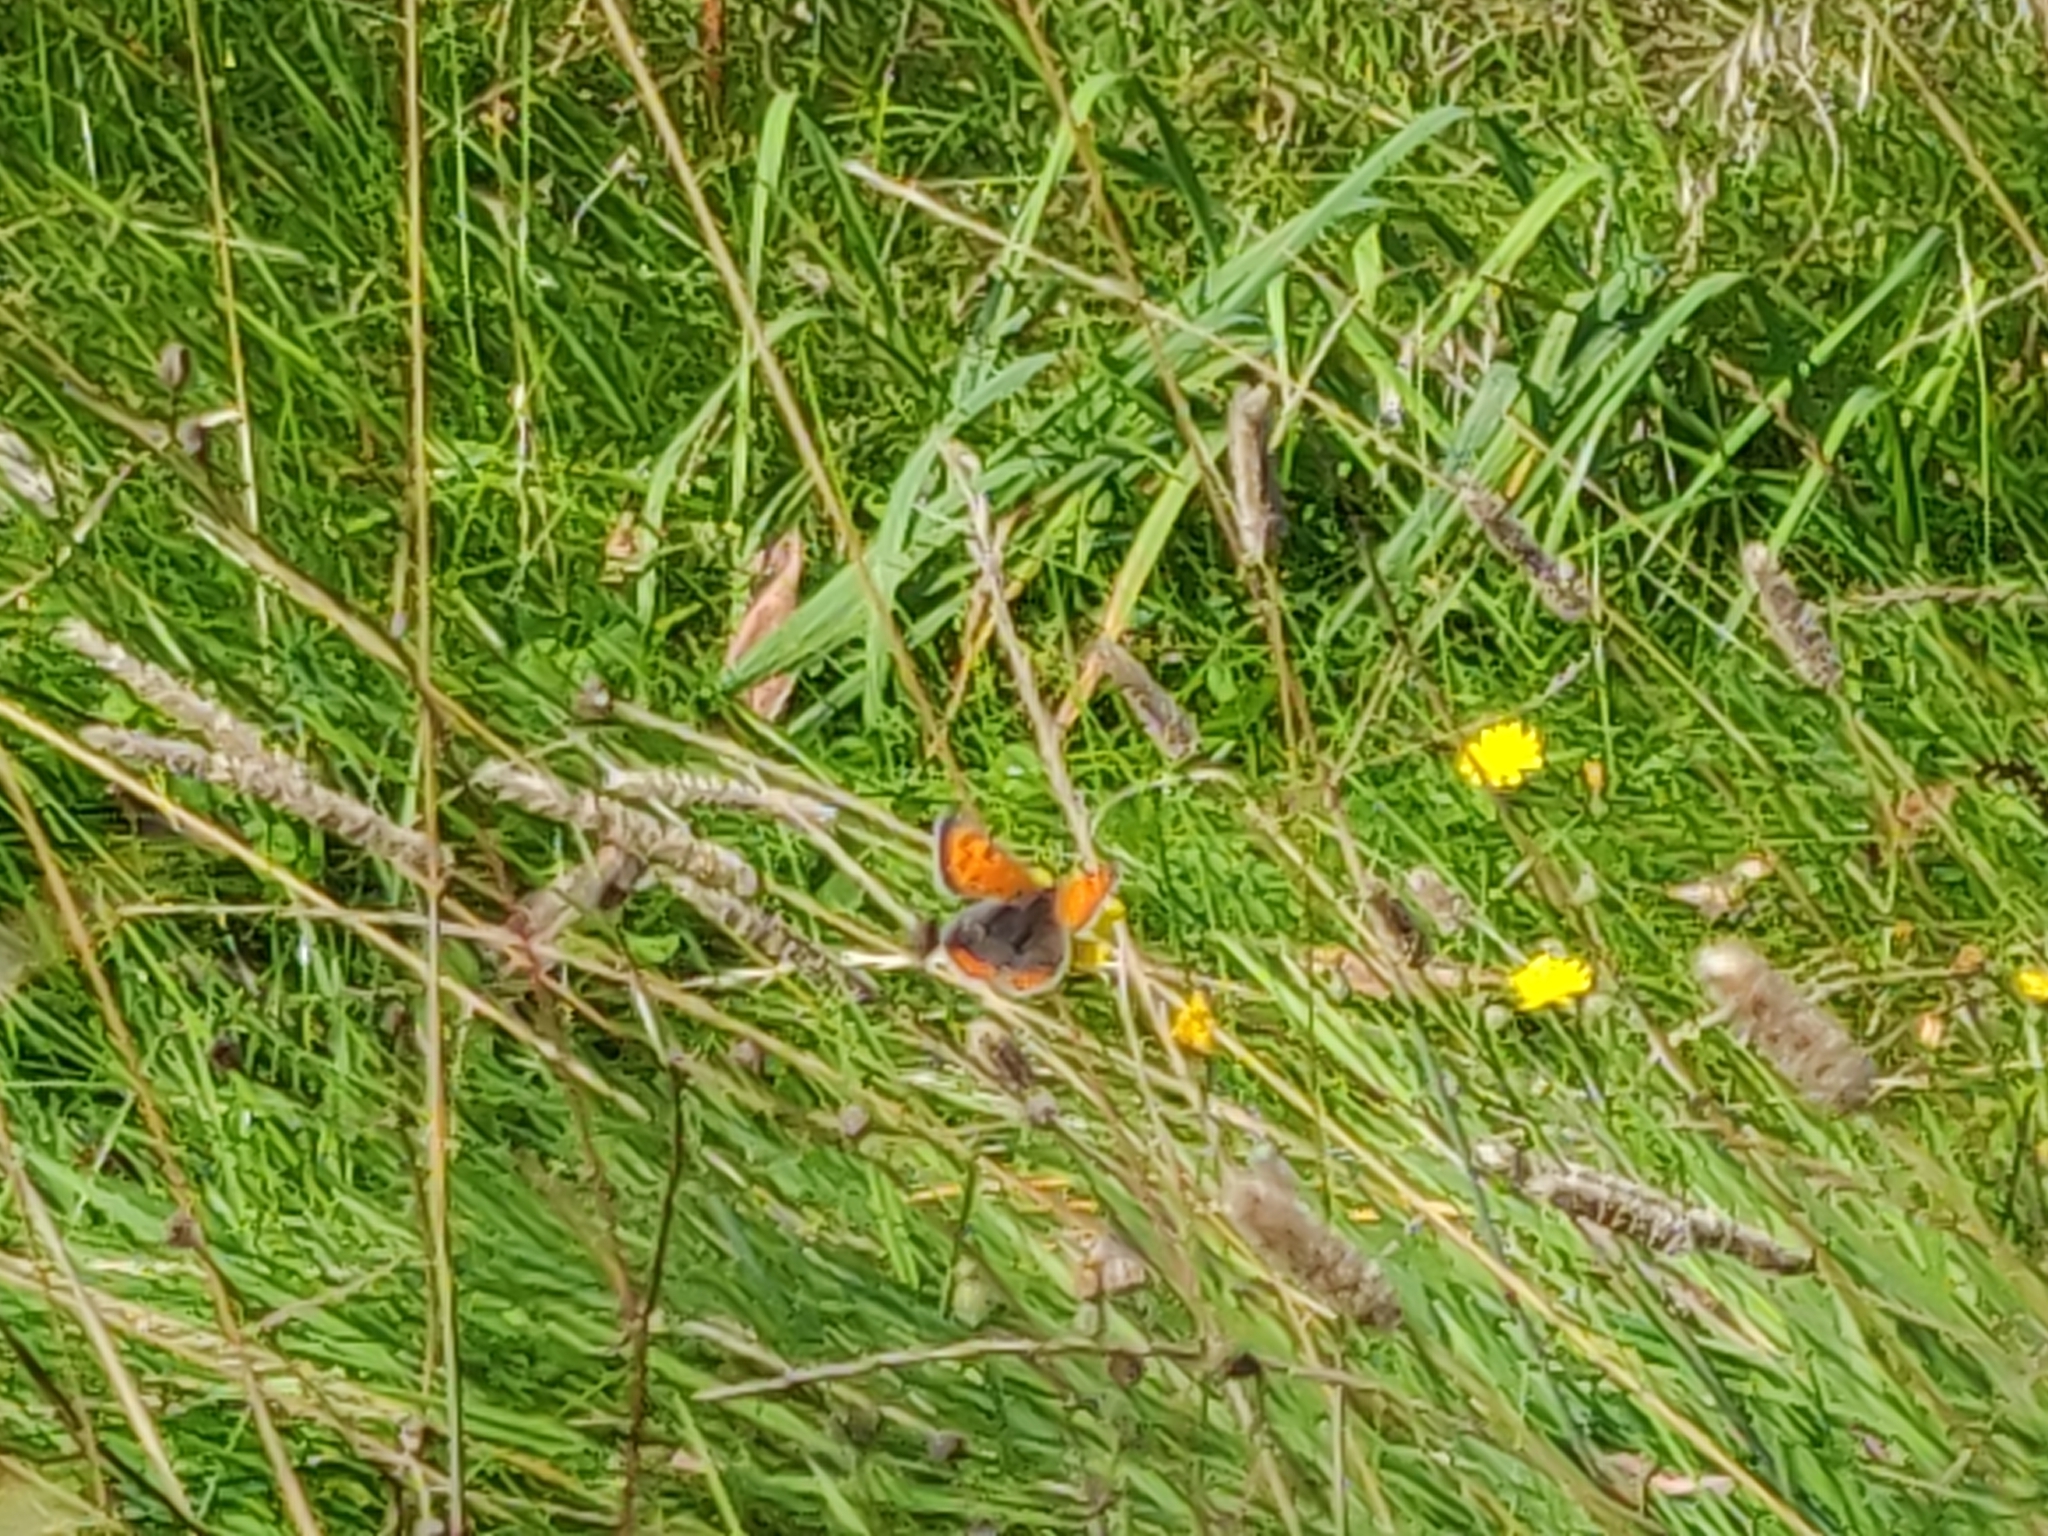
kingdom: Animalia
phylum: Arthropoda
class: Insecta
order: Lepidoptera
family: Lycaenidae
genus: Lycaena
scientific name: Lycaena phlaeas
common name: Small copper
